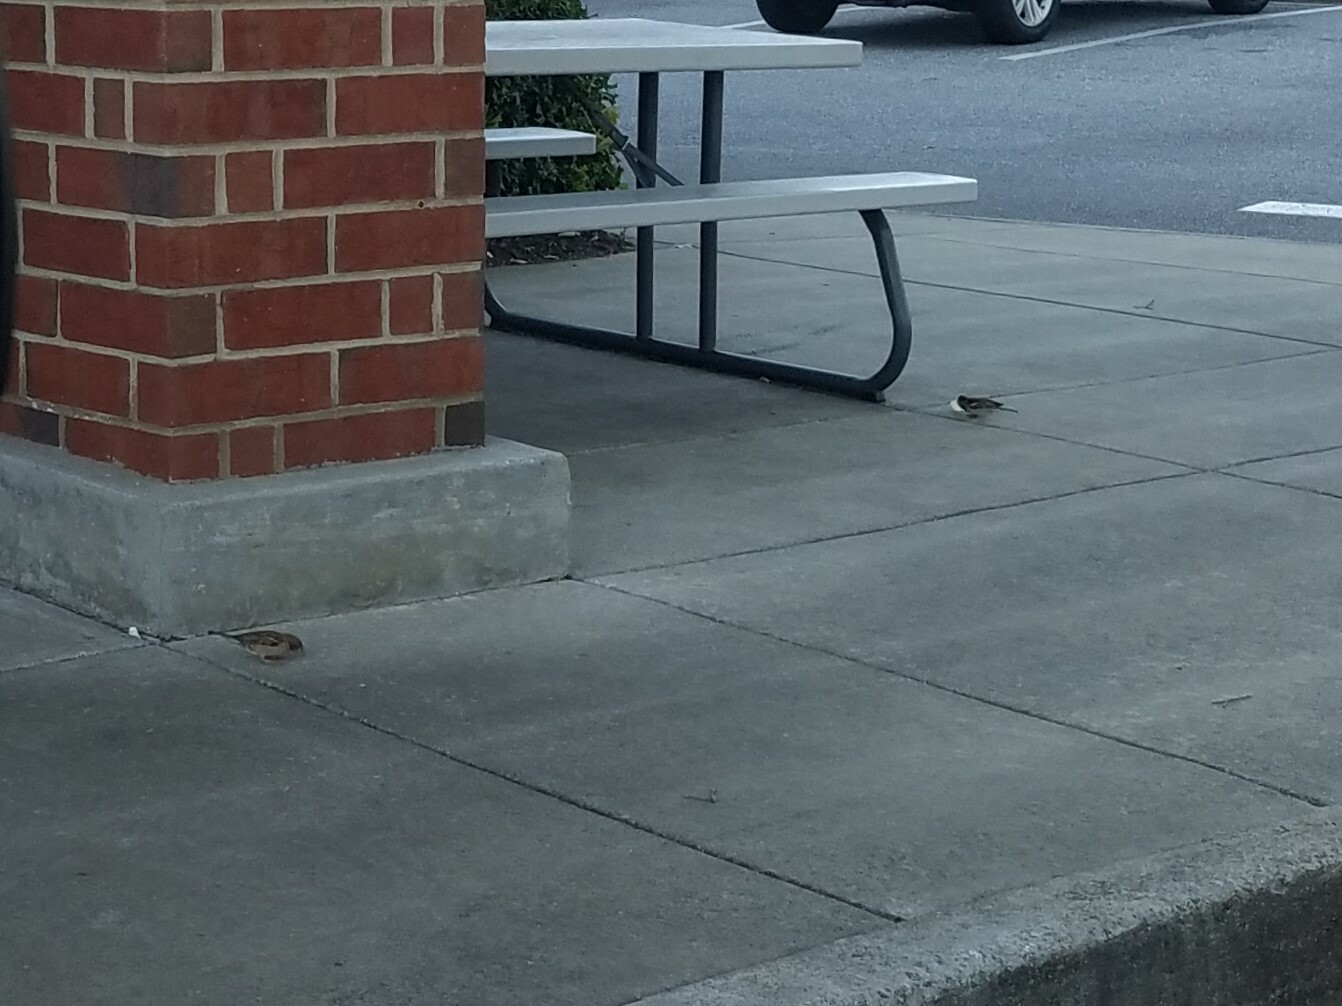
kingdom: Animalia
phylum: Chordata
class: Aves
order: Passeriformes
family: Passeridae
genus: Passer
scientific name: Passer domesticus
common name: House sparrow
